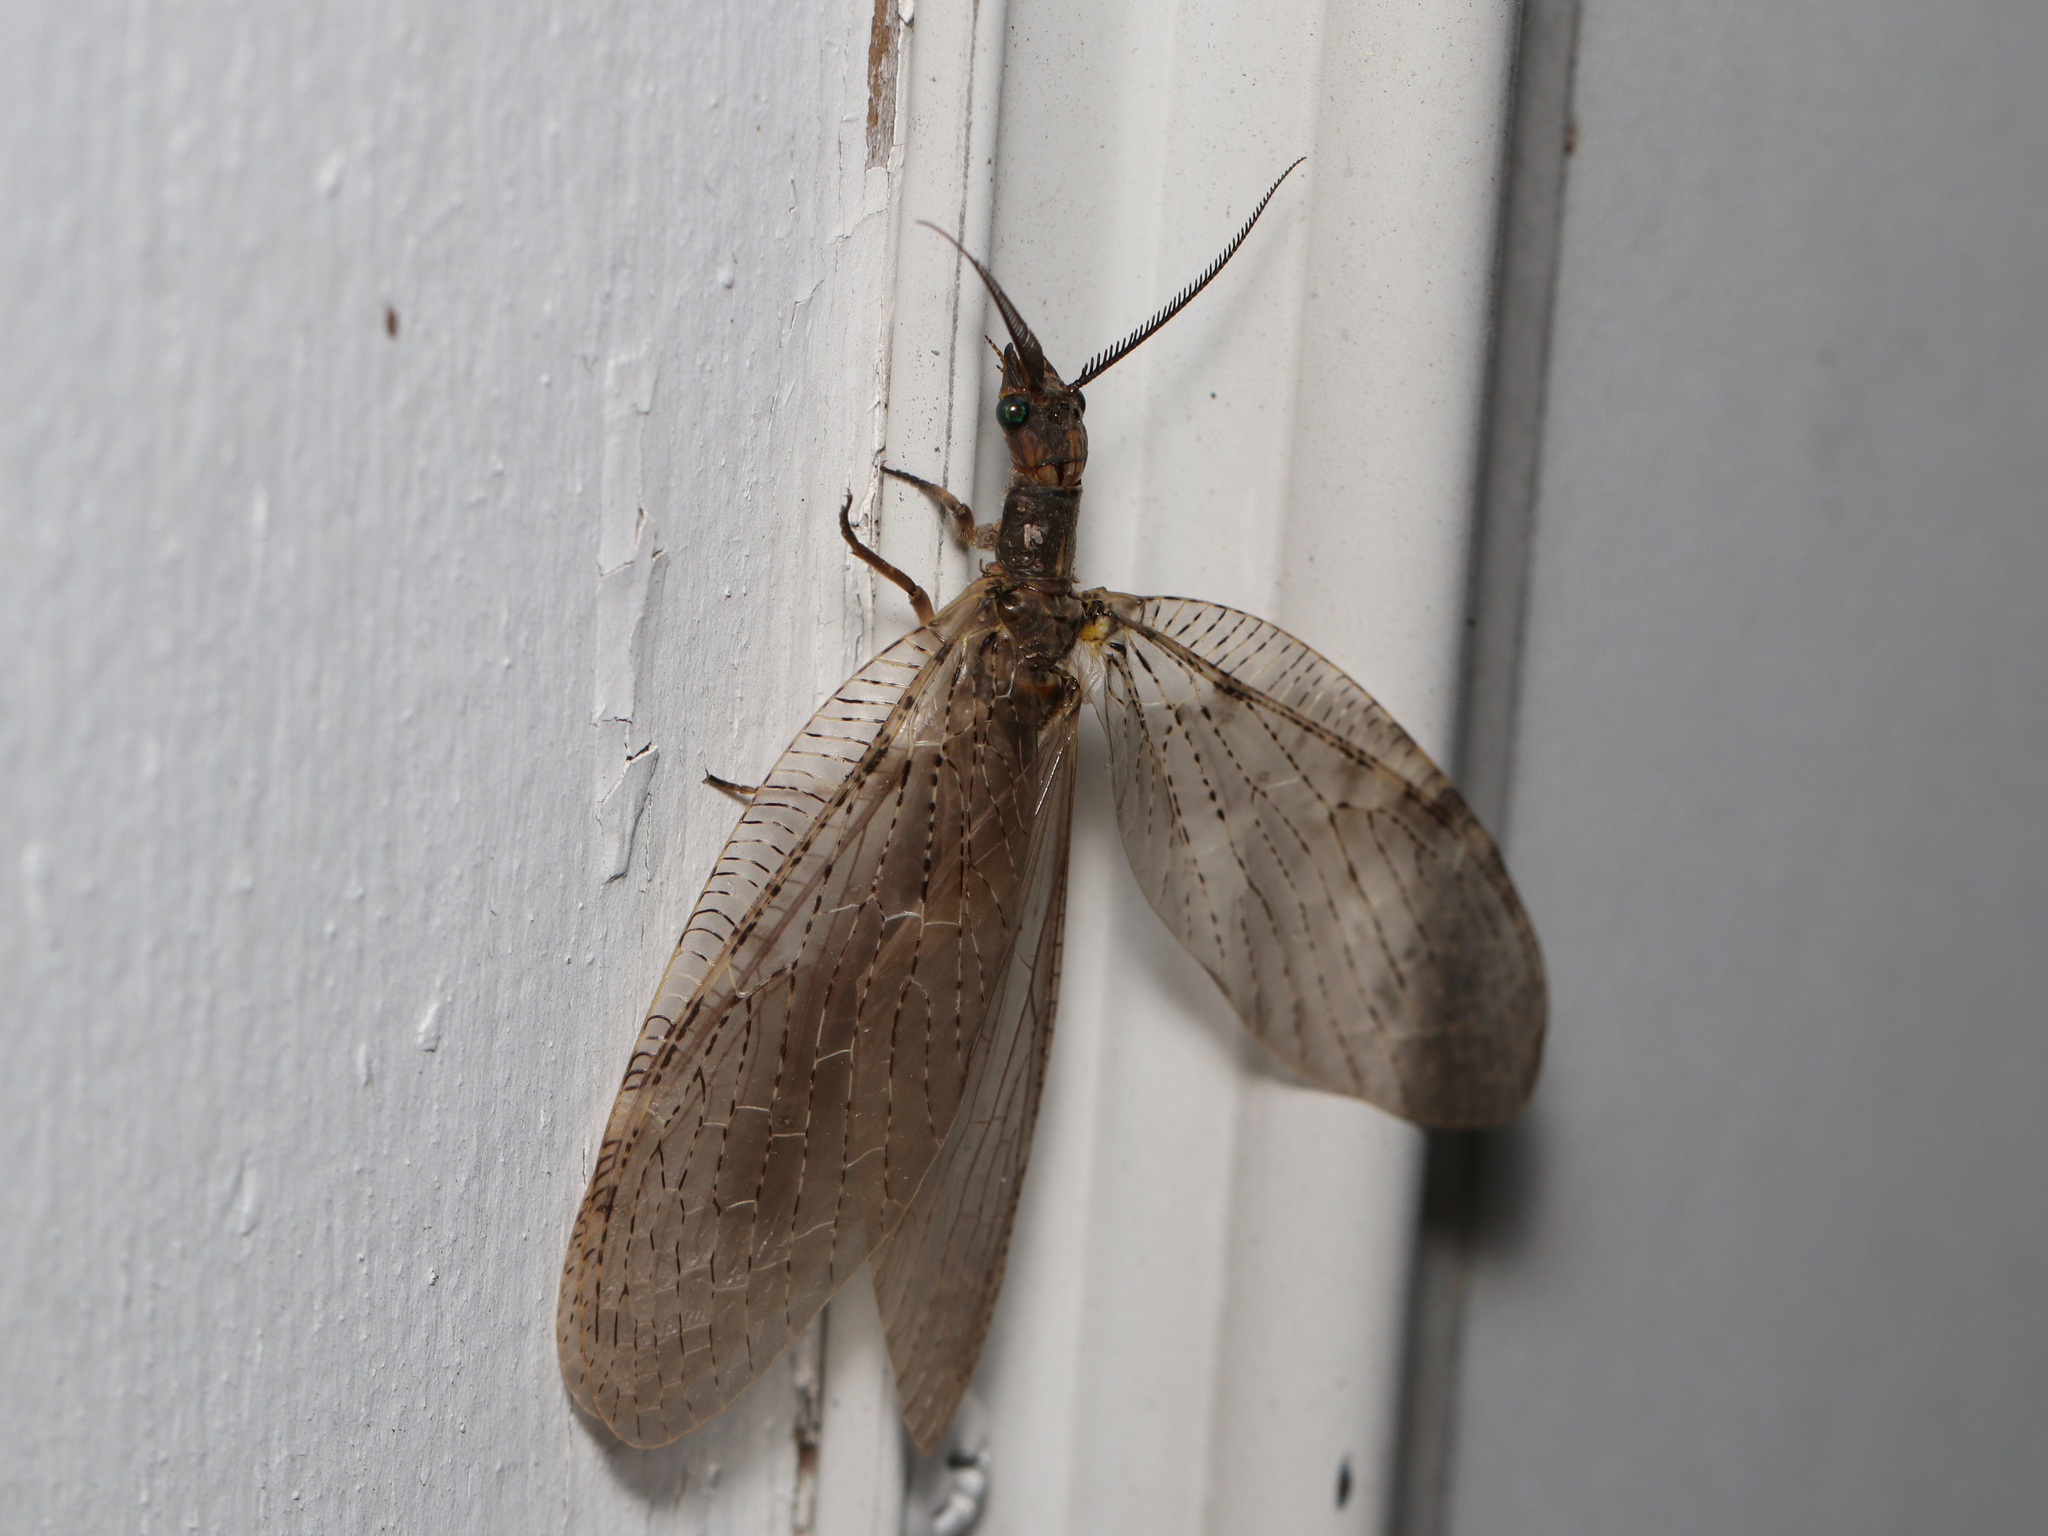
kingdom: Animalia
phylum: Arthropoda
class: Insecta
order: Megaloptera
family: Corydalidae
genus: Chauliodes
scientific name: Chauliodes pectinicornis
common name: Summer fishfly
